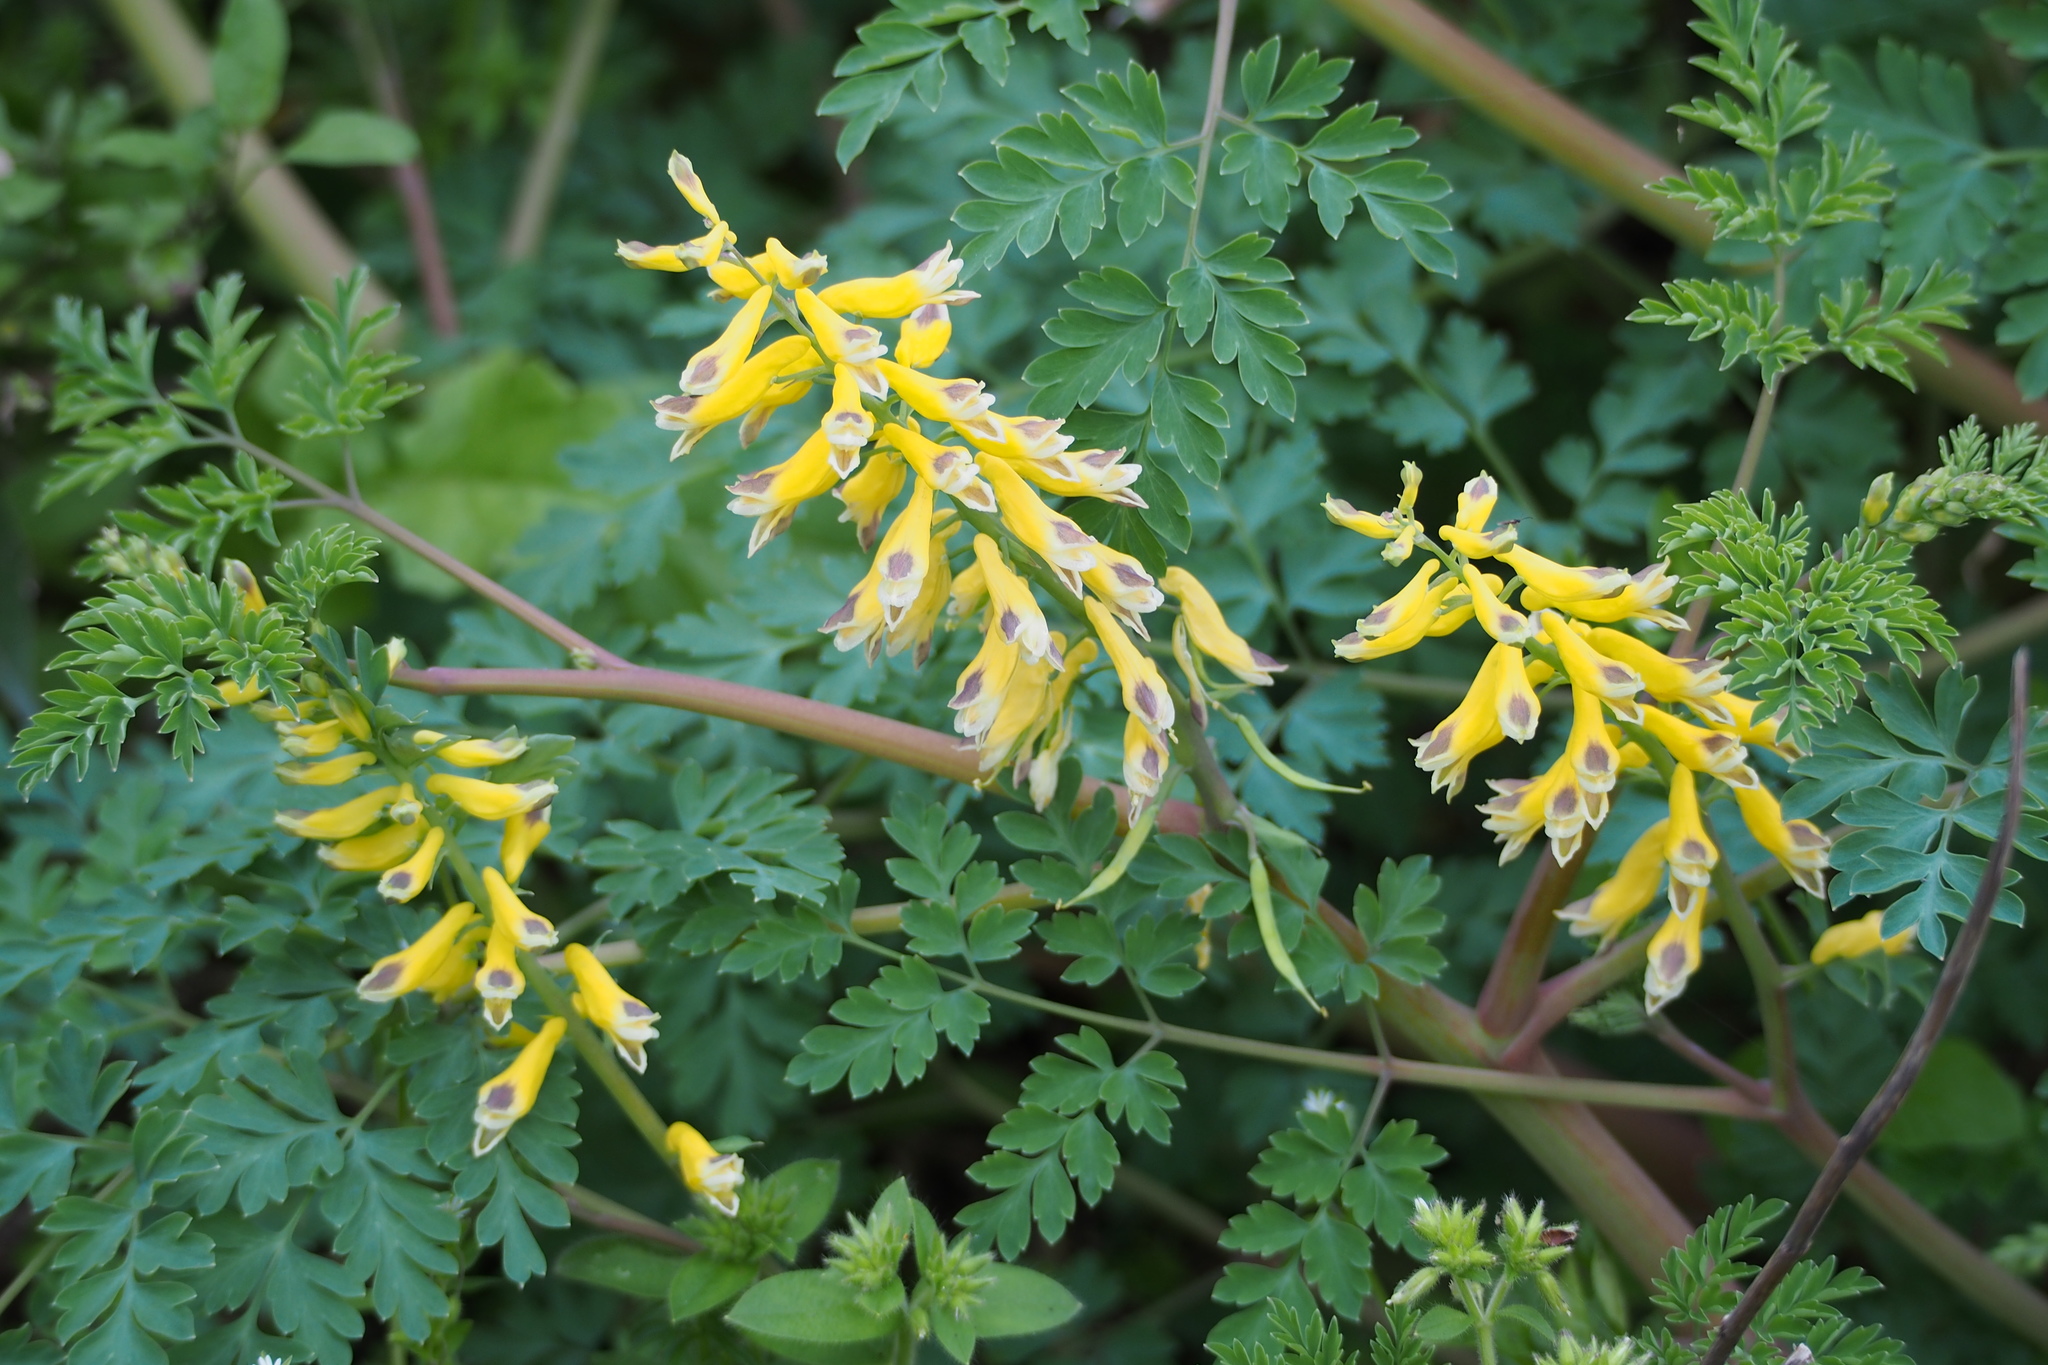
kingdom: Plantae
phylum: Tracheophyta
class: Magnoliopsida
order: Ranunculales
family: Papaveraceae
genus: Corydalis
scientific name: Corydalis platycarpa
